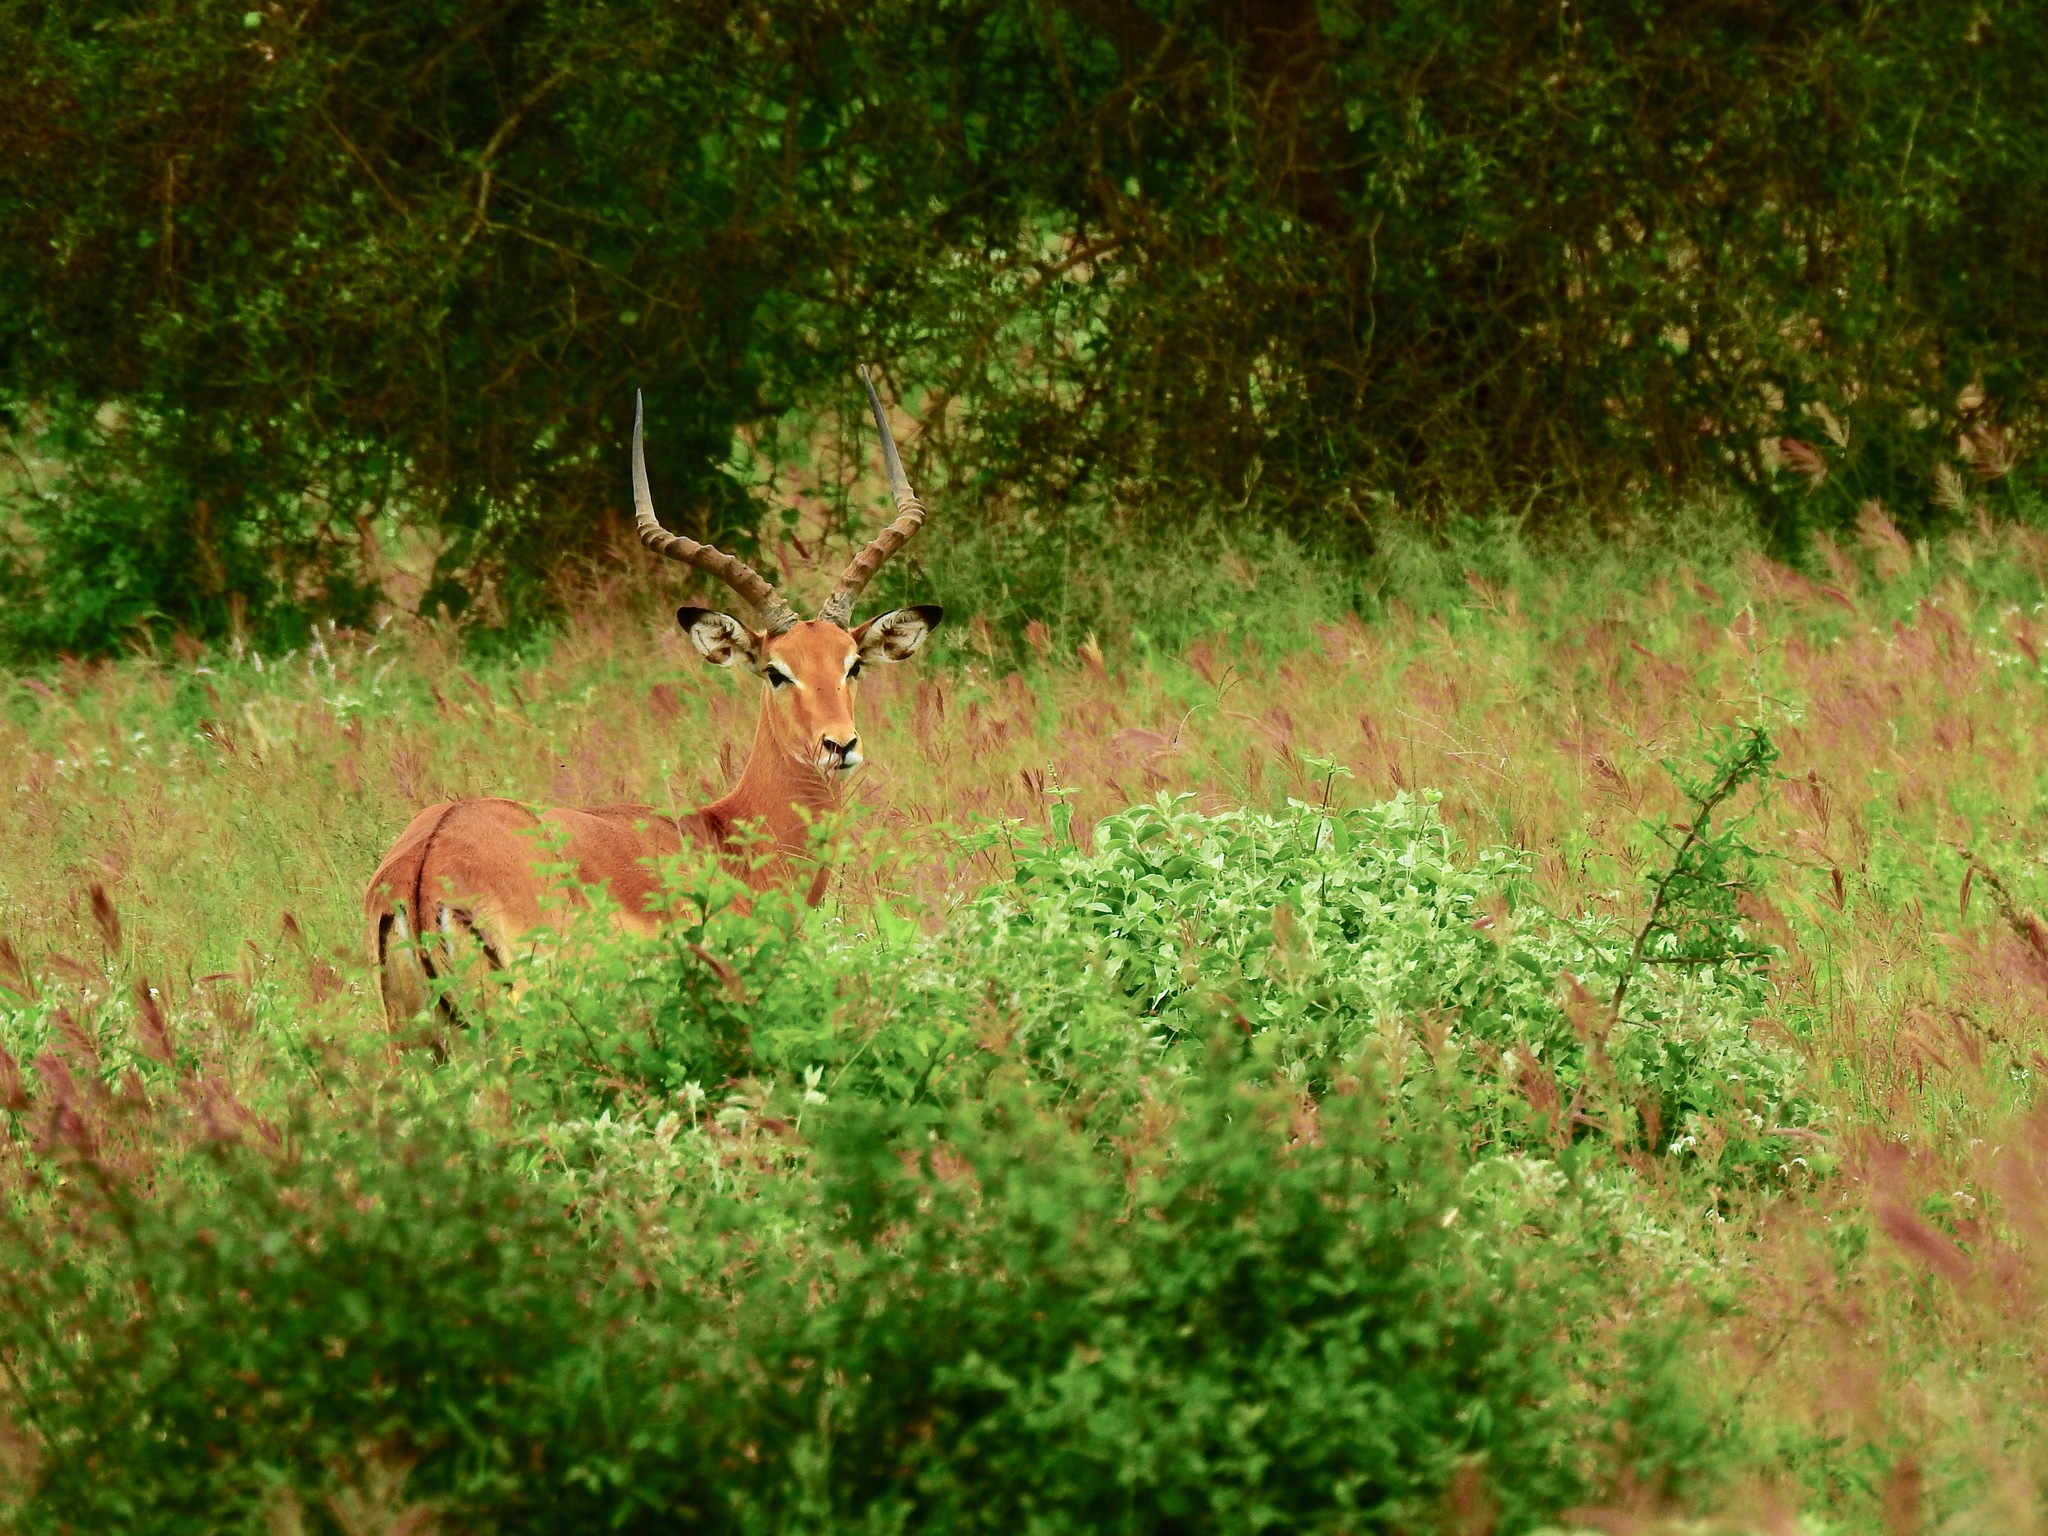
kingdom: Animalia
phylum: Chordata
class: Mammalia
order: Artiodactyla
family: Bovidae
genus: Aepyceros
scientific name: Aepyceros melampus
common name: Impala
